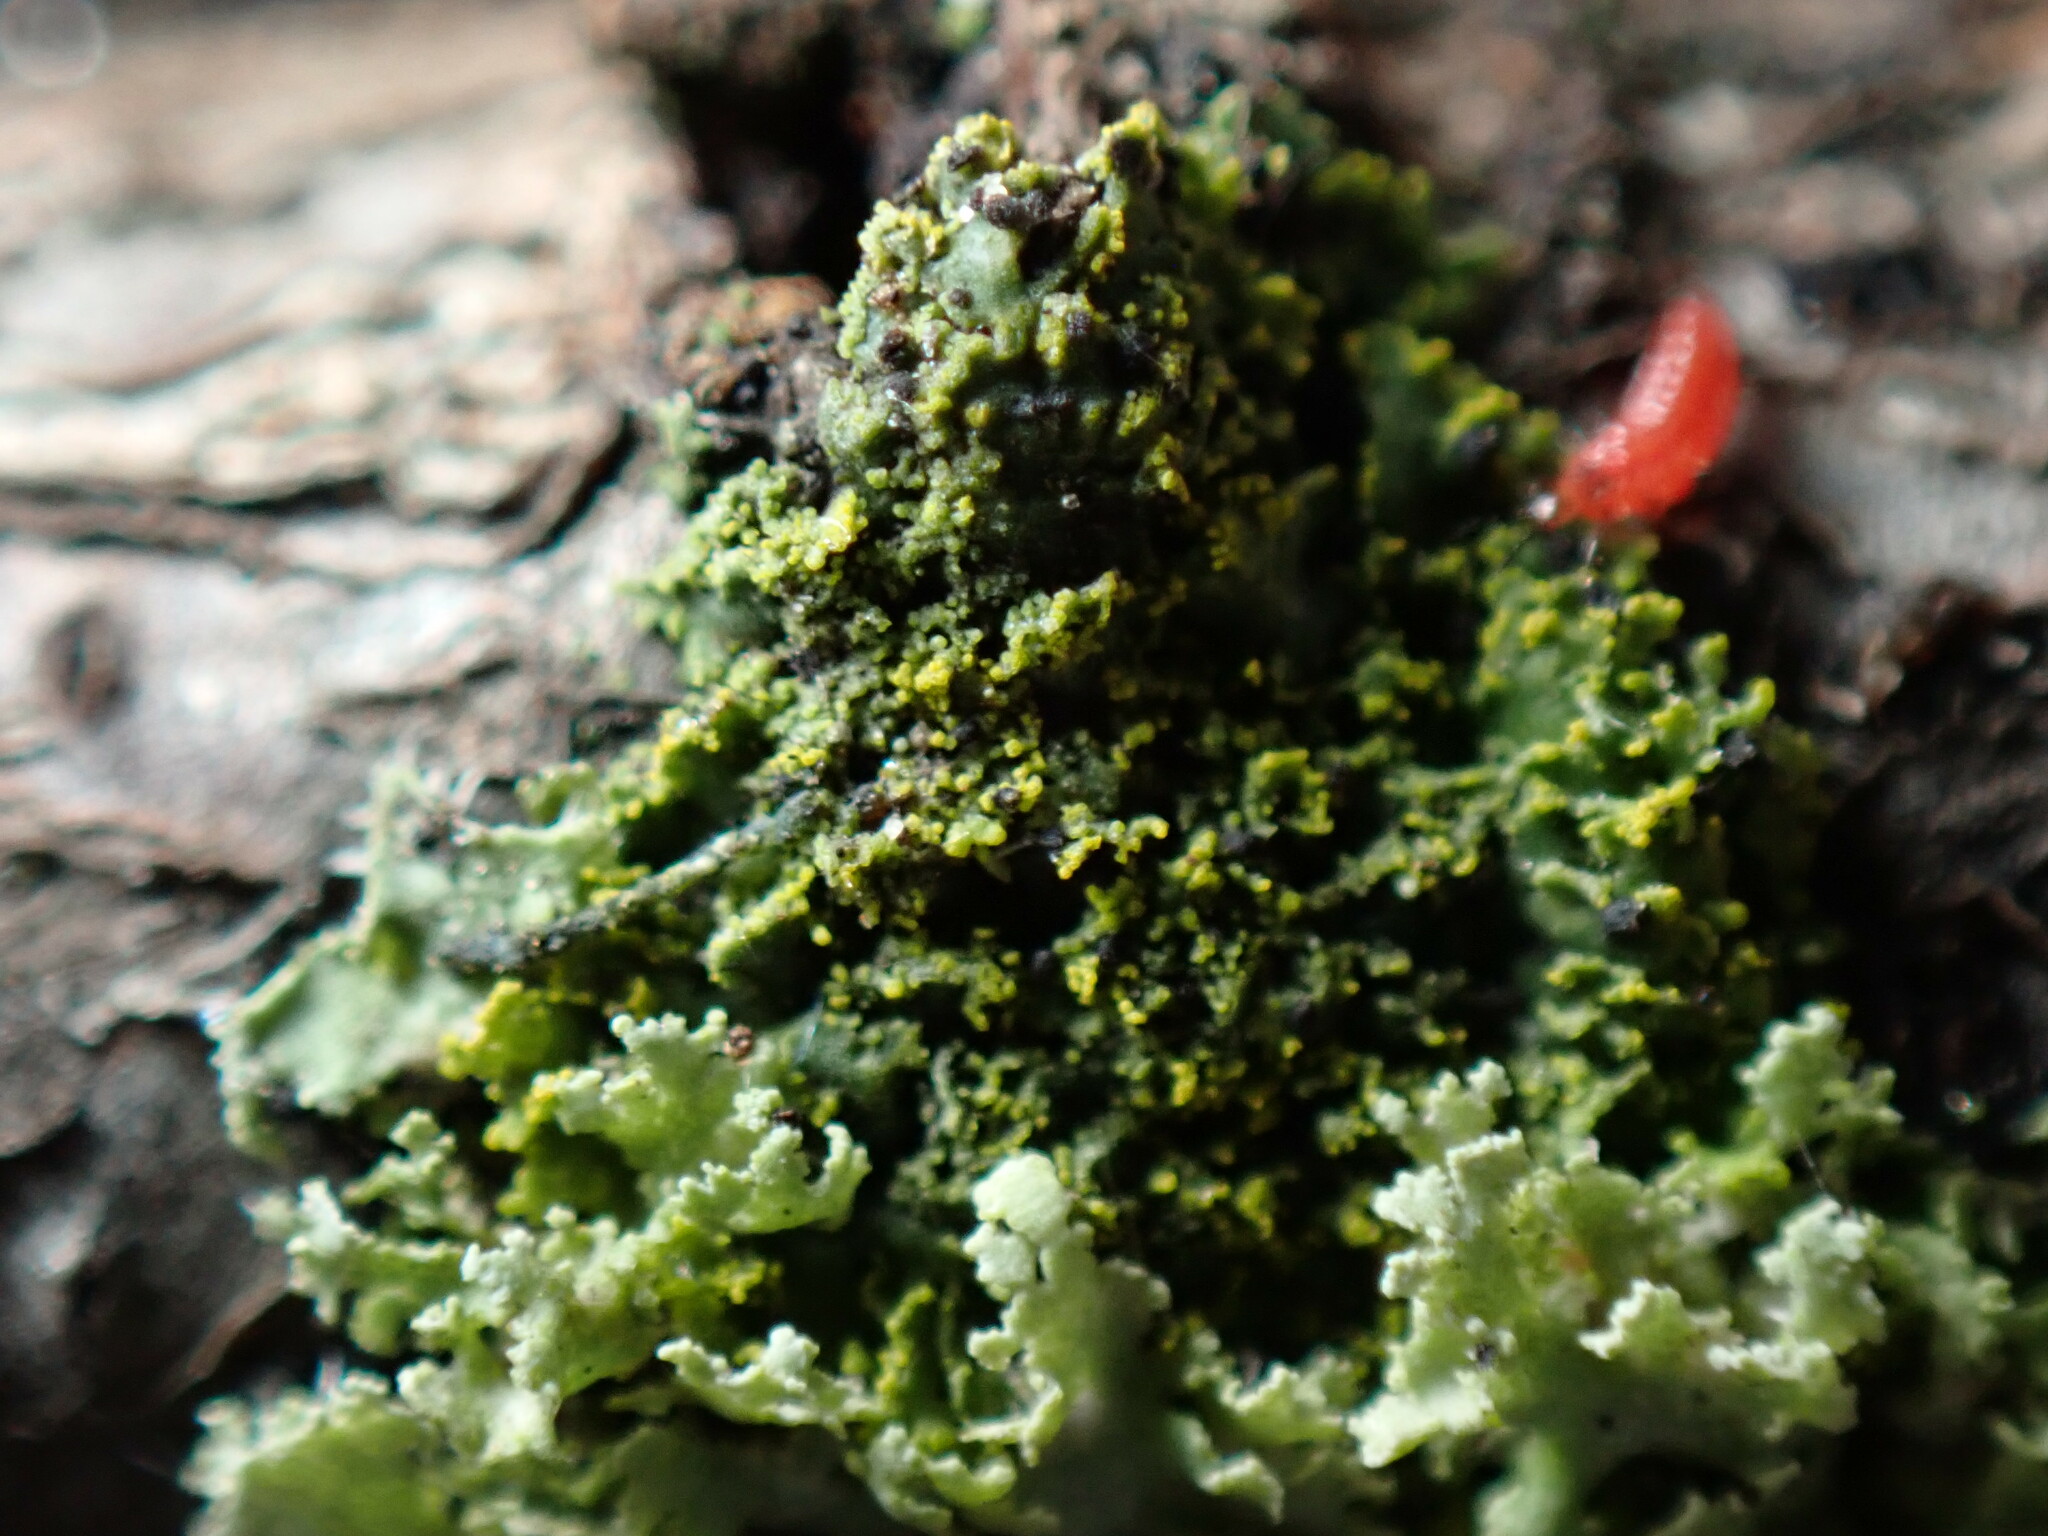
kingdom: Fungi
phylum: Ascomycota
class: Lecanoromycetes
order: Caliciales
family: Physciaceae
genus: Physcia
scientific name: Physcia millegrana
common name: Rosette lichen
